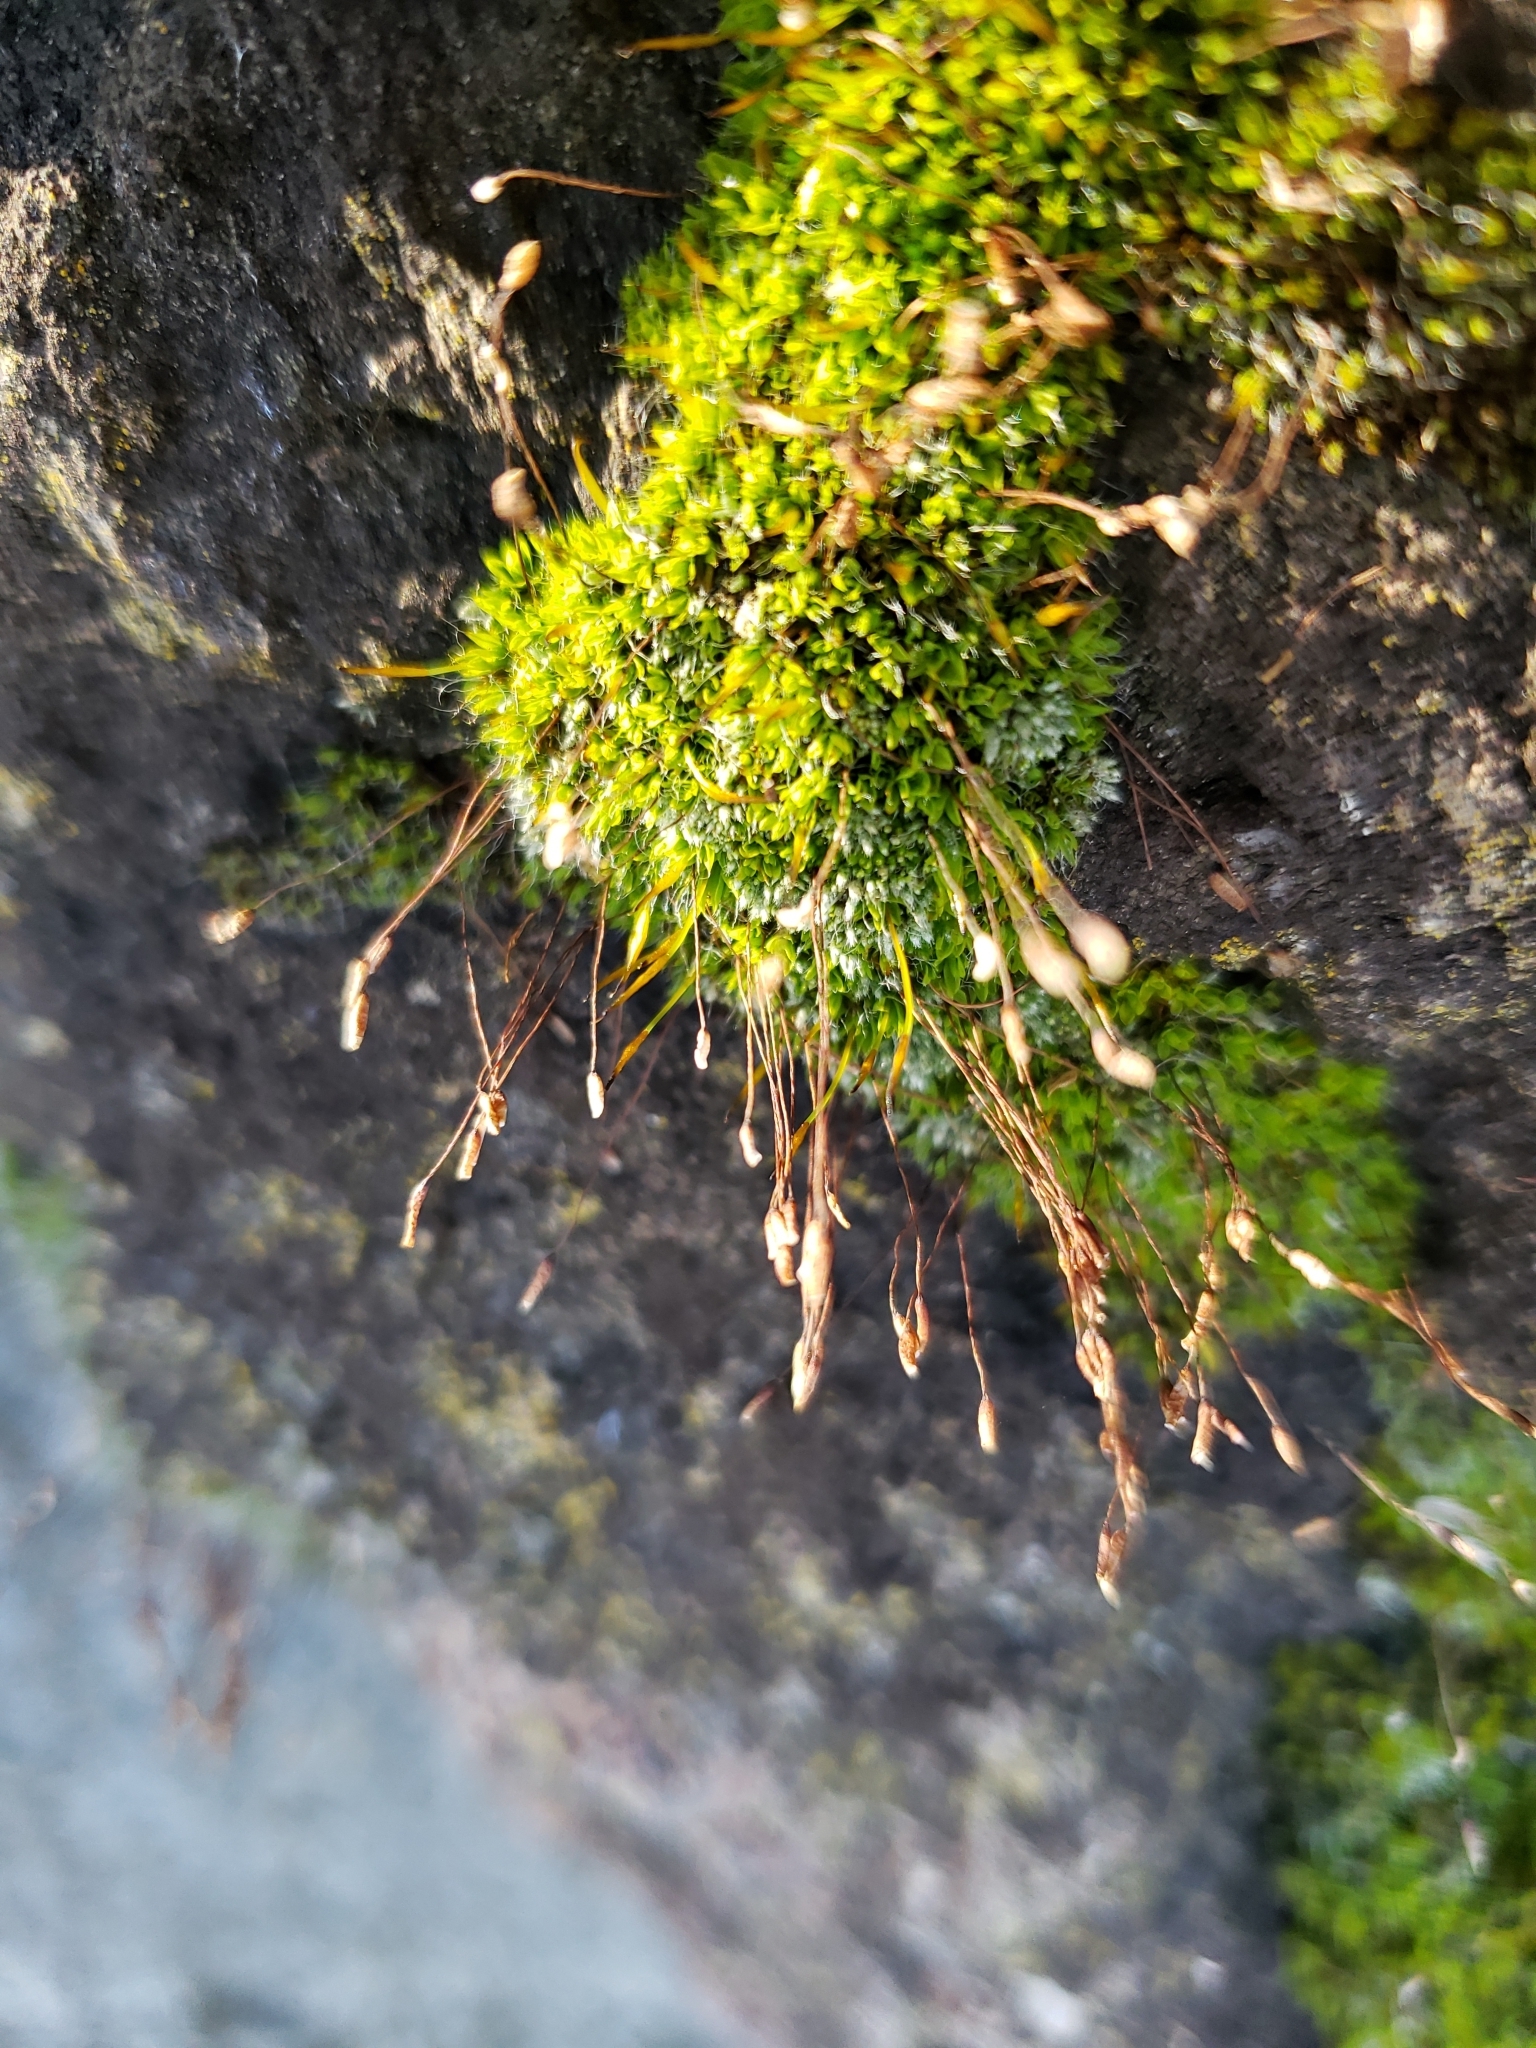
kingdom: Plantae
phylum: Bryophyta
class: Bryopsida
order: Pottiales
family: Pottiaceae
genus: Tortula
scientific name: Tortula muralis
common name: Wall screw-moss
